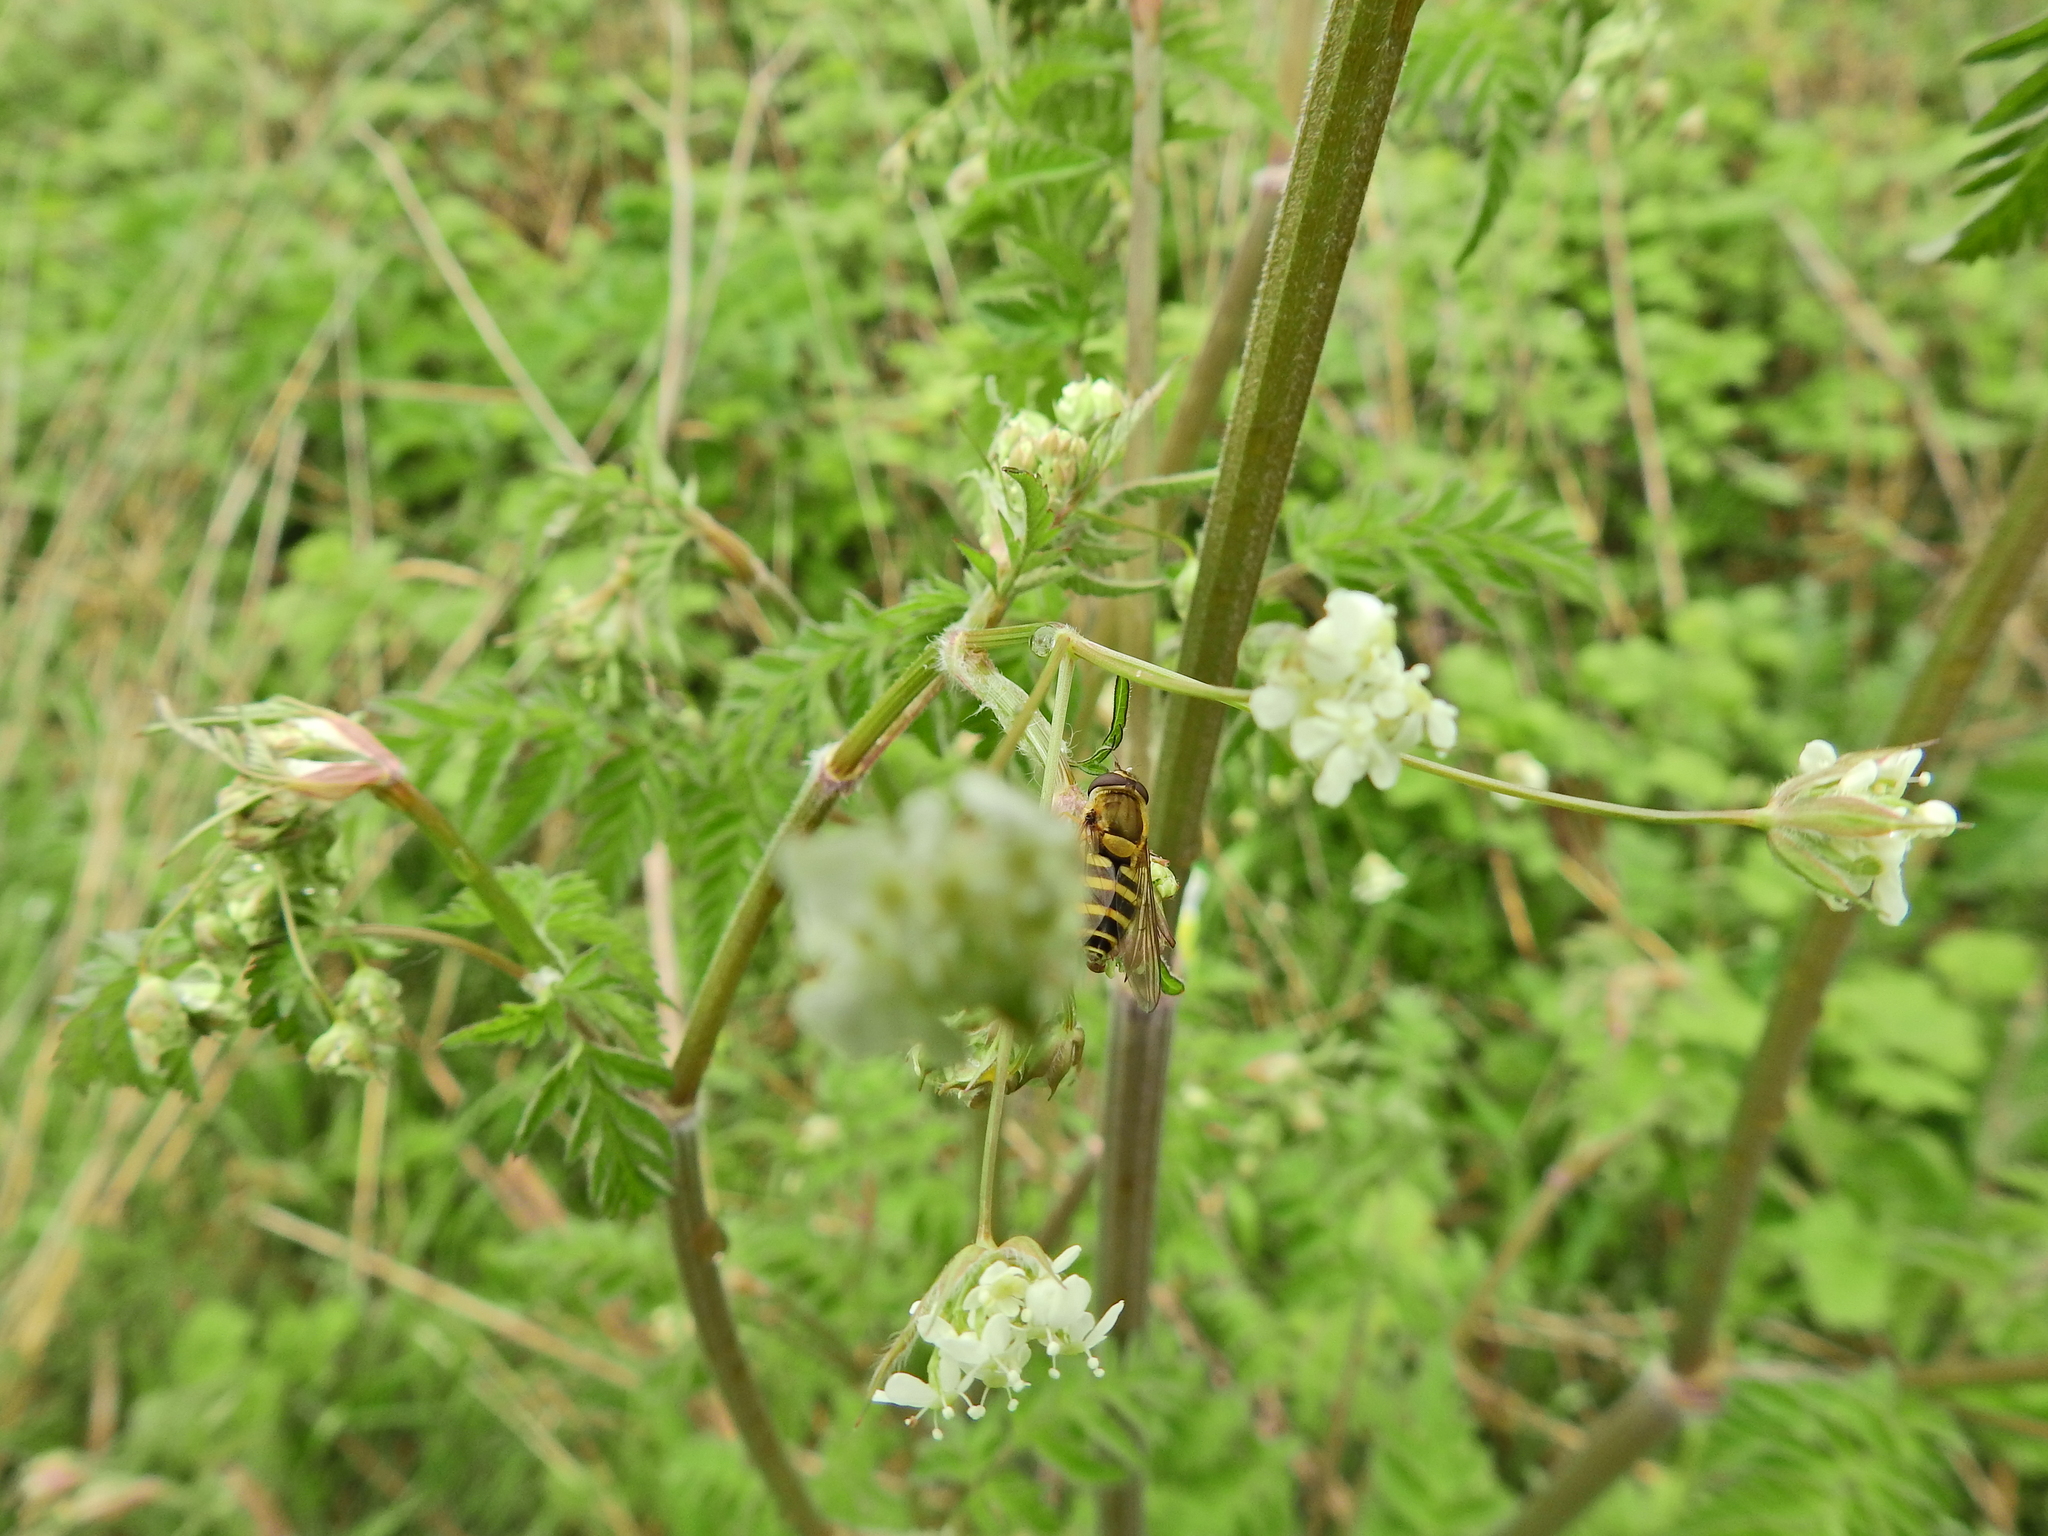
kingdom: Animalia
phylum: Arthropoda
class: Insecta
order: Diptera
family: Syrphidae
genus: Syrphus
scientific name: Syrphus
